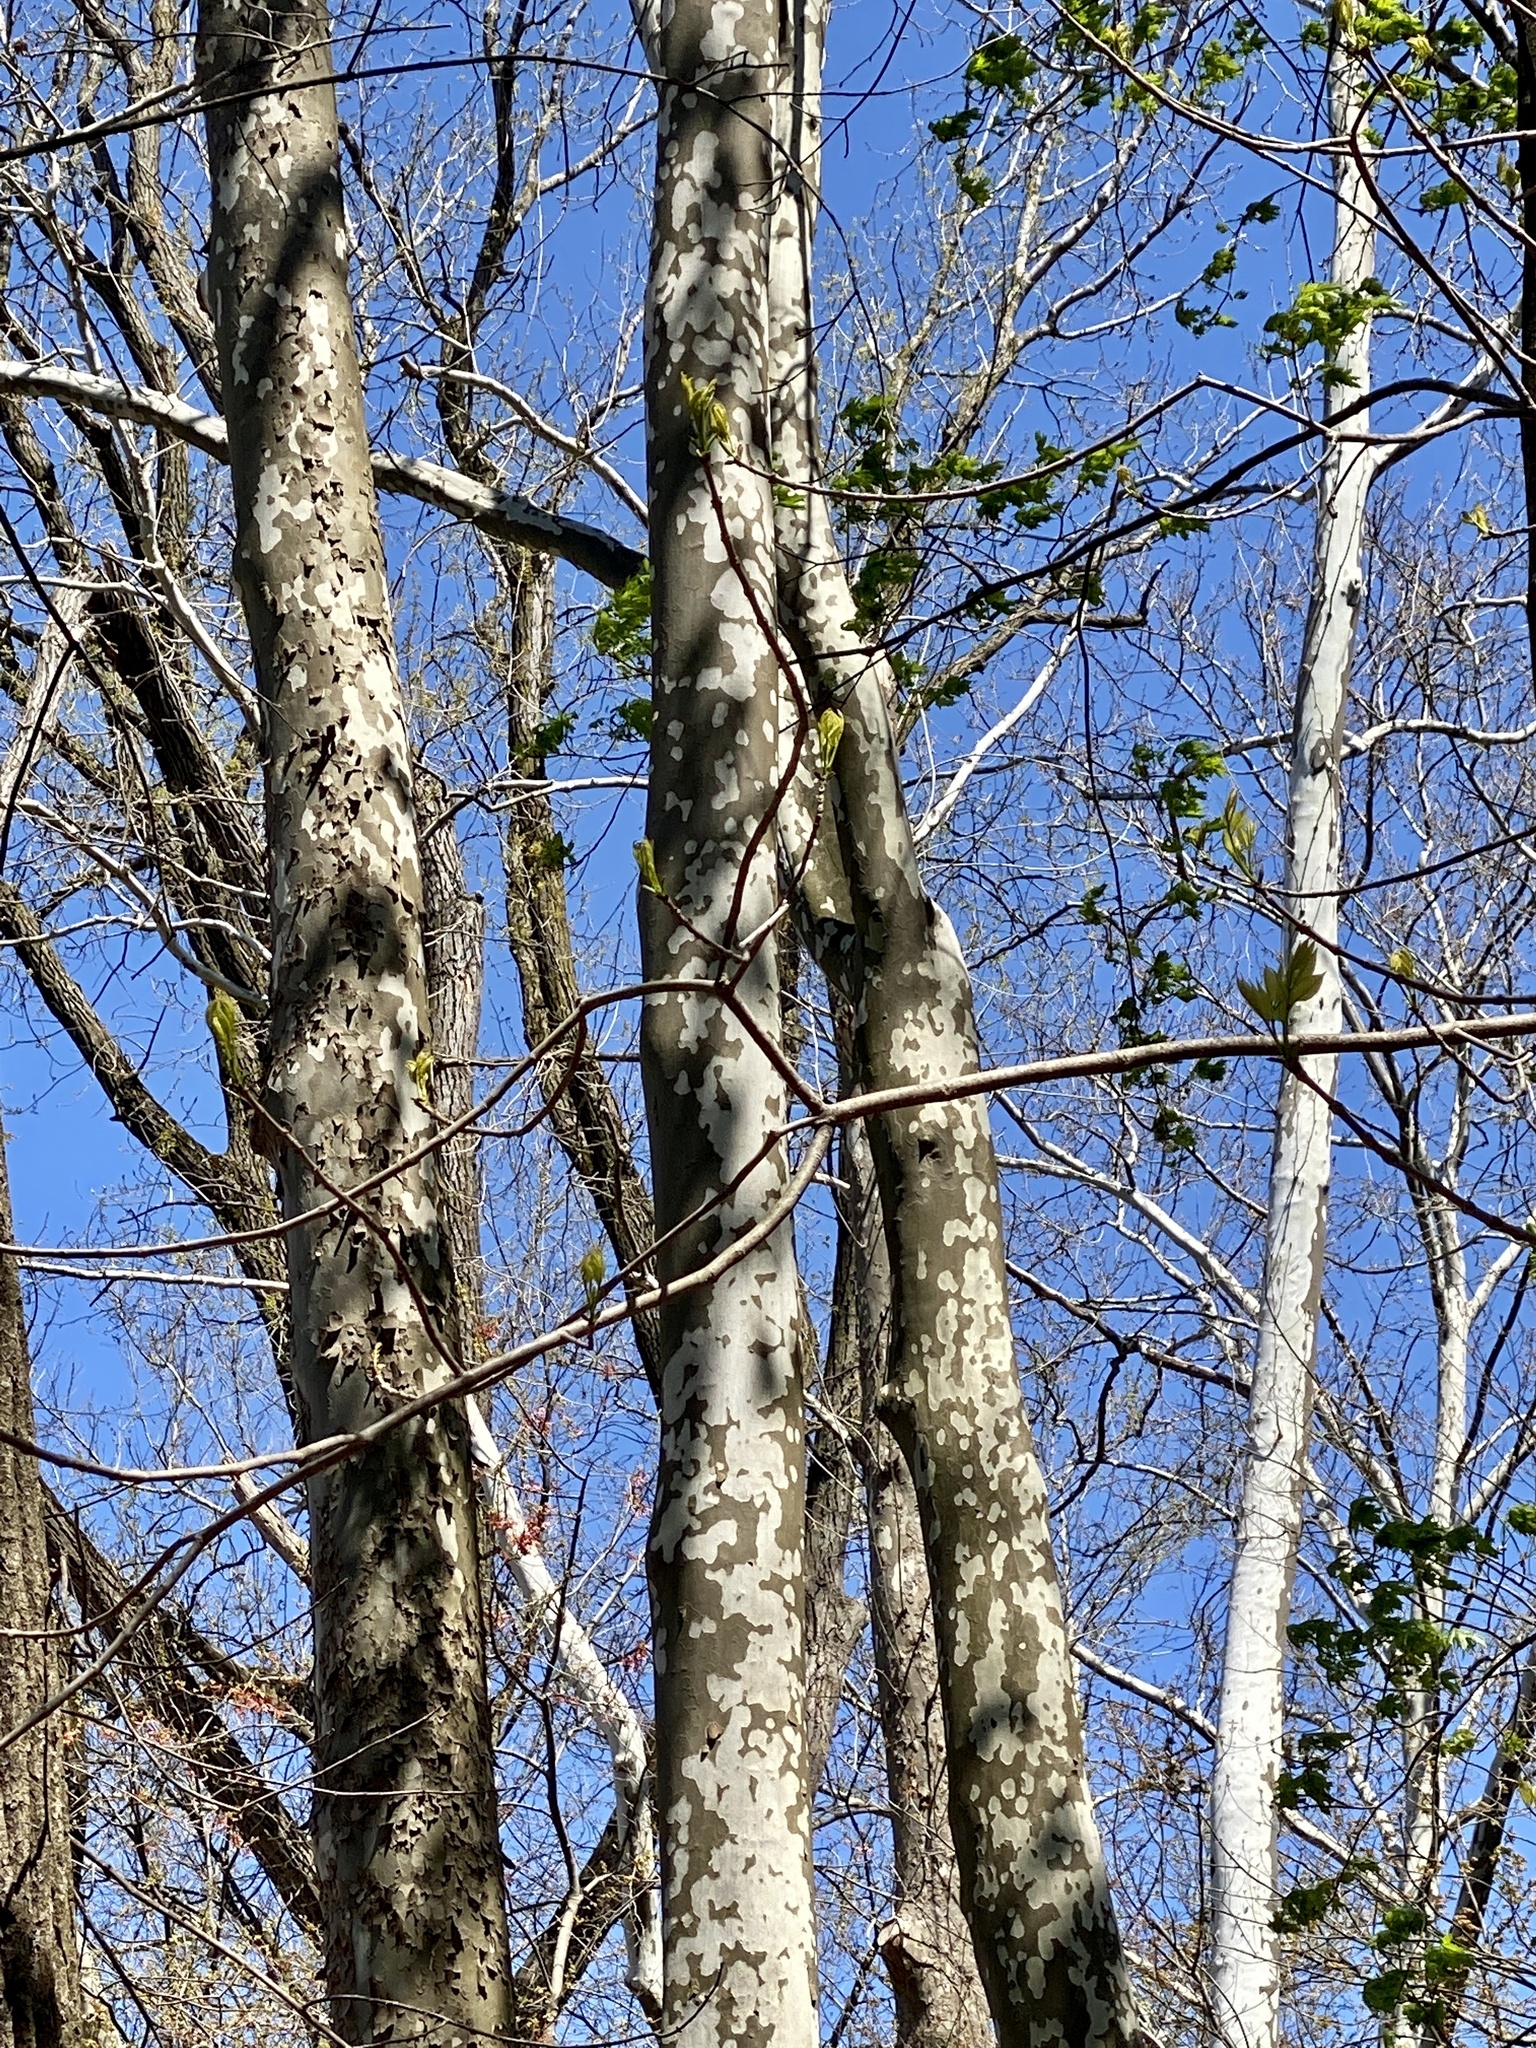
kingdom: Plantae
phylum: Tracheophyta
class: Magnoliopsida
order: Proteales
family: Platanaceae
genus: Platanus
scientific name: Platanus occidentalis
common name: American sycamore
